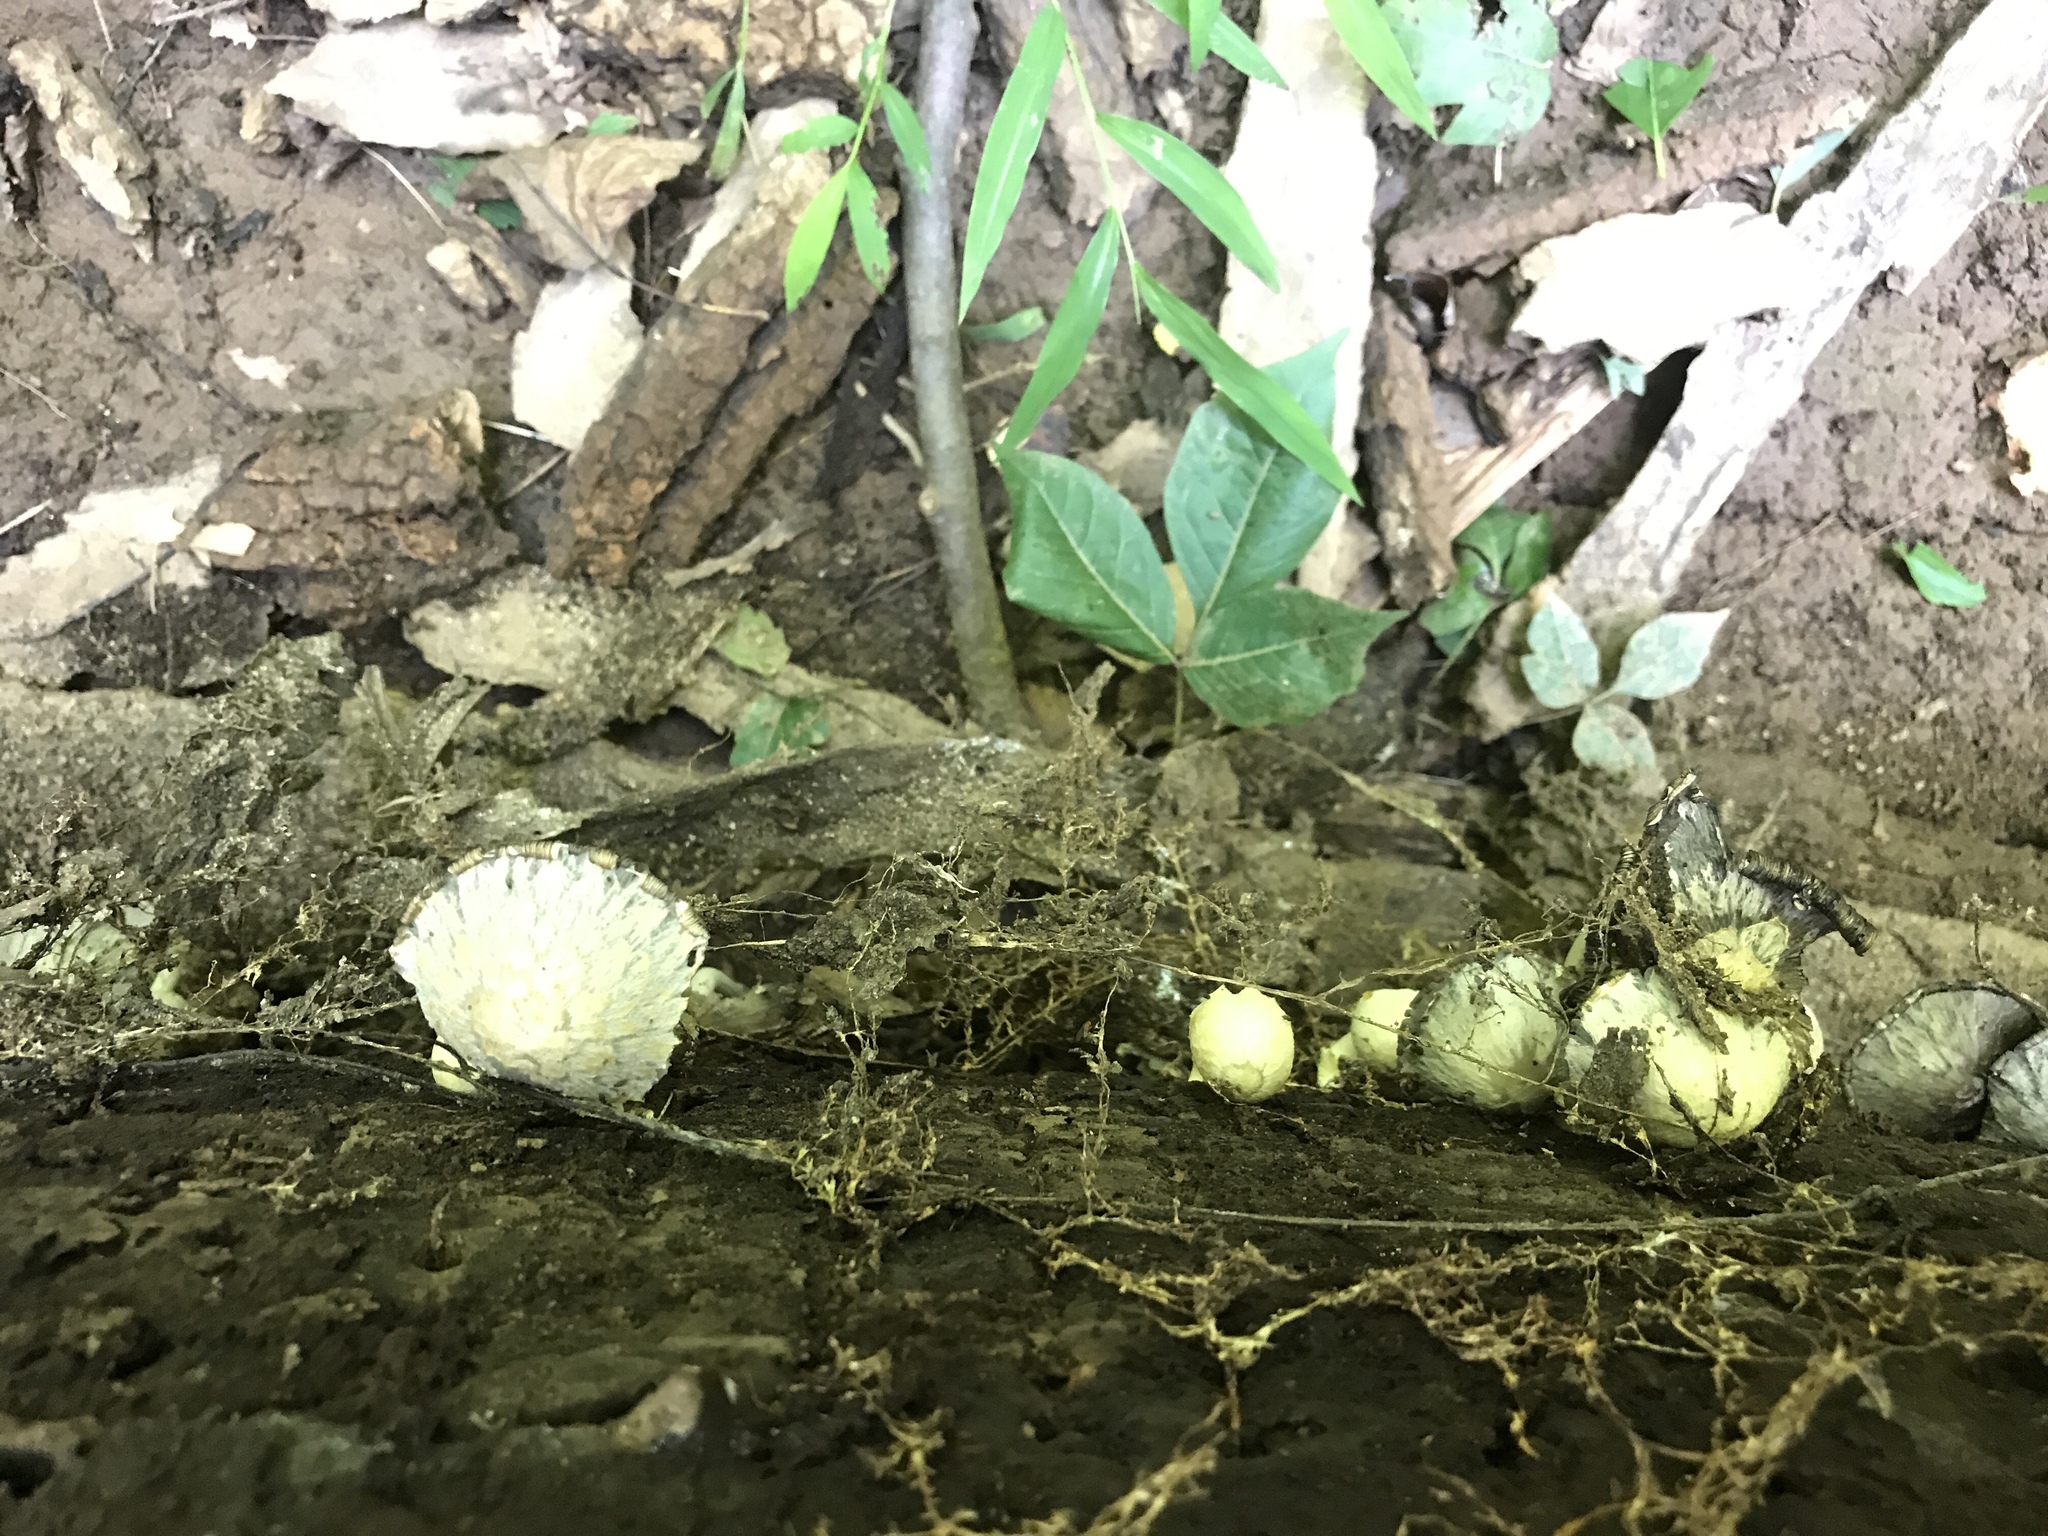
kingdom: Fungi
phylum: Basidiomycota
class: Agaricomycetes
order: Agaricales
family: Psathyrellaceae
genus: Coprinopsis
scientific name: Coprinopsis variegata
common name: Scaly ink cap
